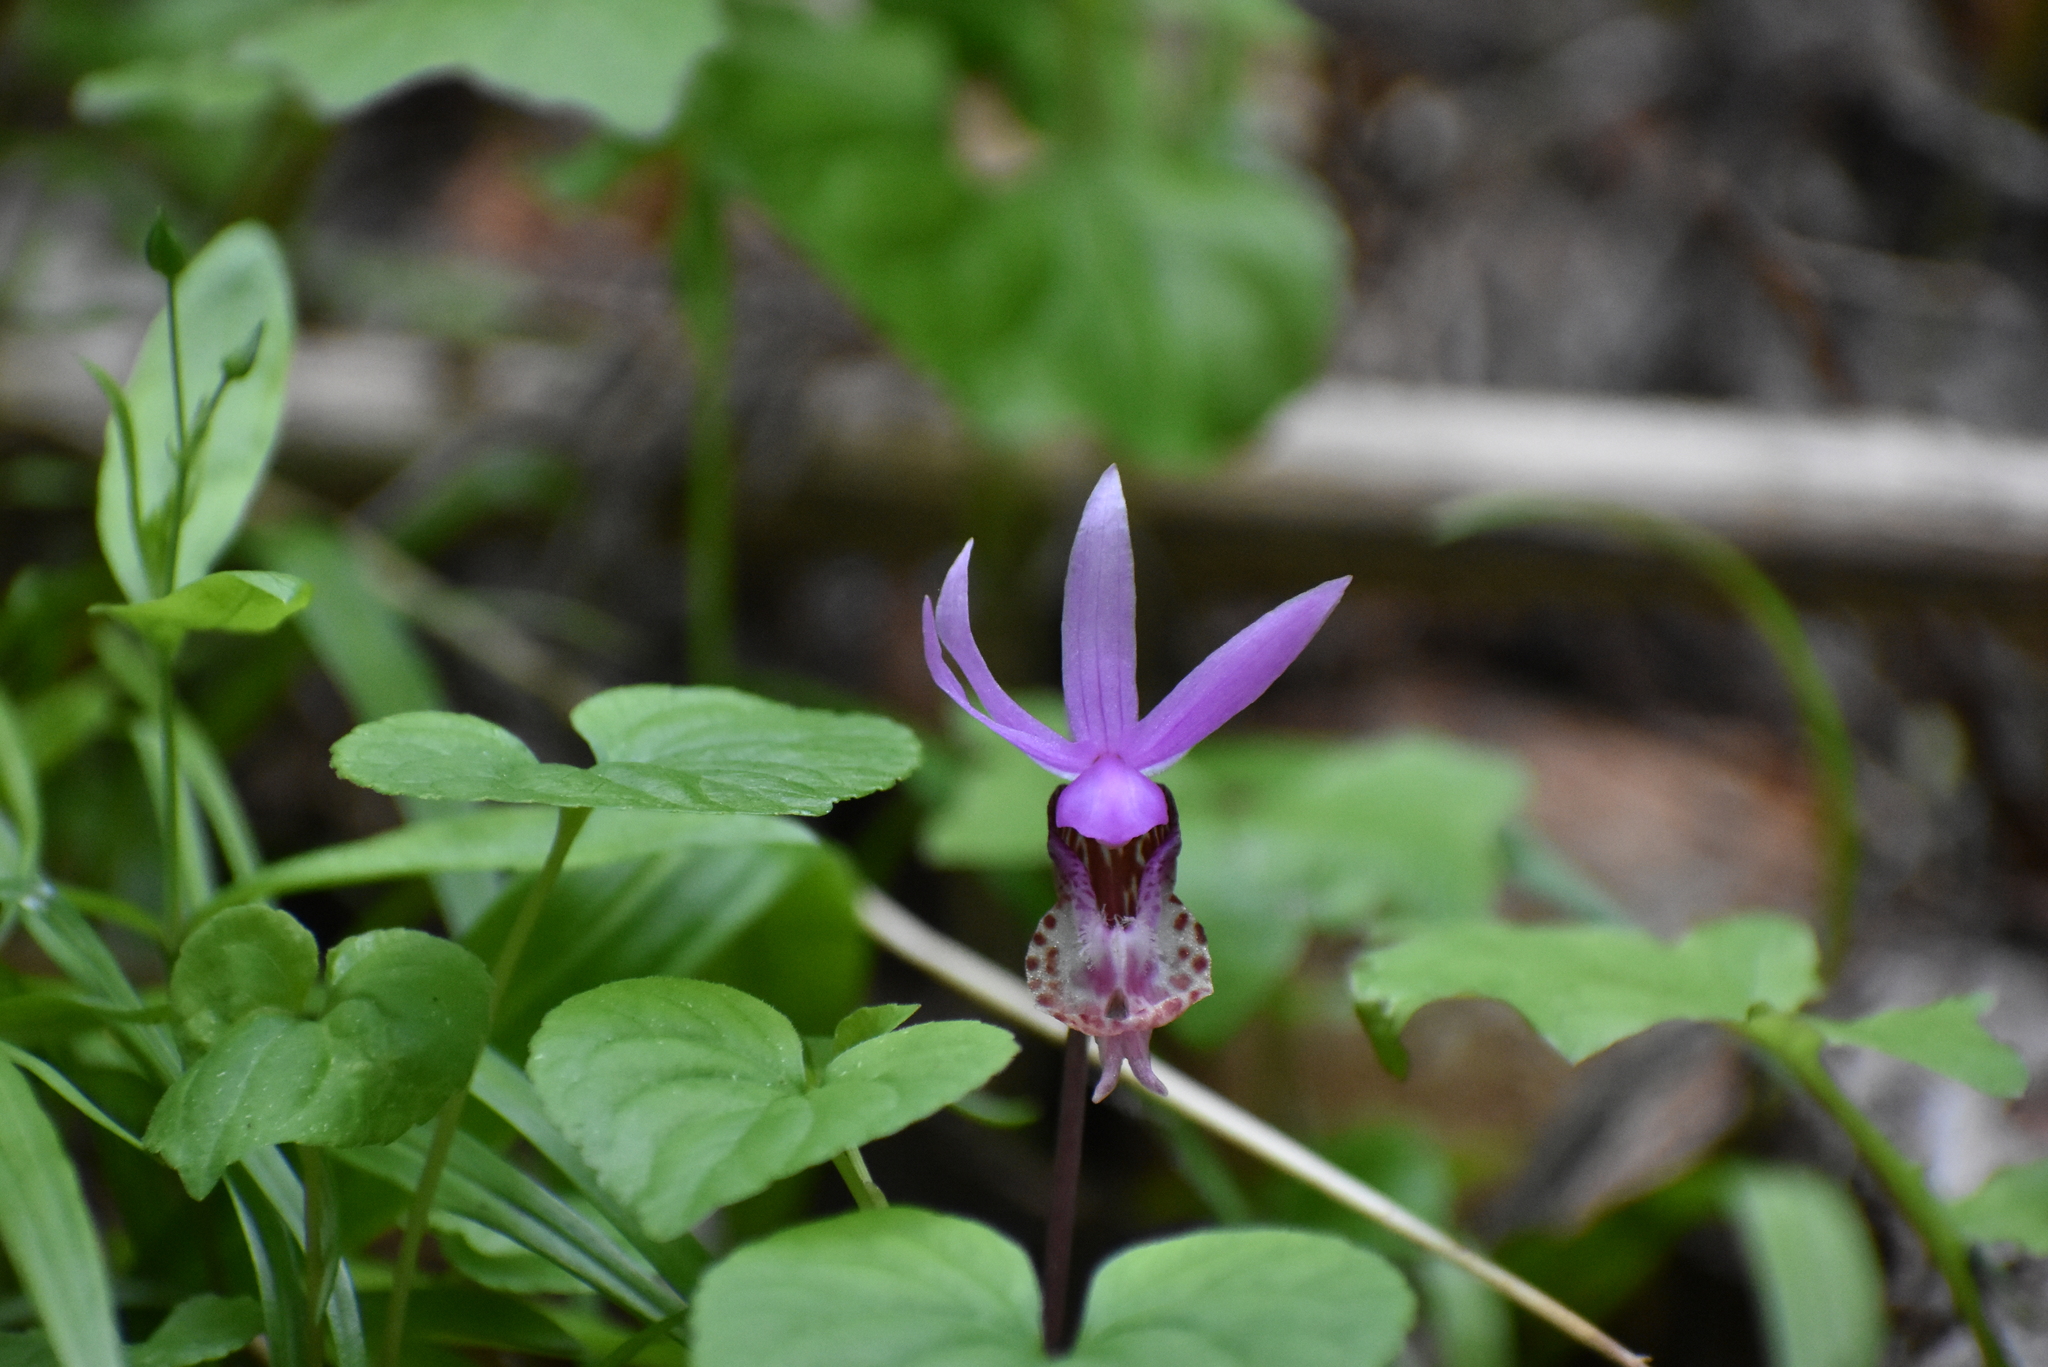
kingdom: Plantae
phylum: Tracheophyta
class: Liliopsida
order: Asparagales
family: Orchidaceae
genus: Calypso
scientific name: Calypso bulbosa
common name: Calypso
